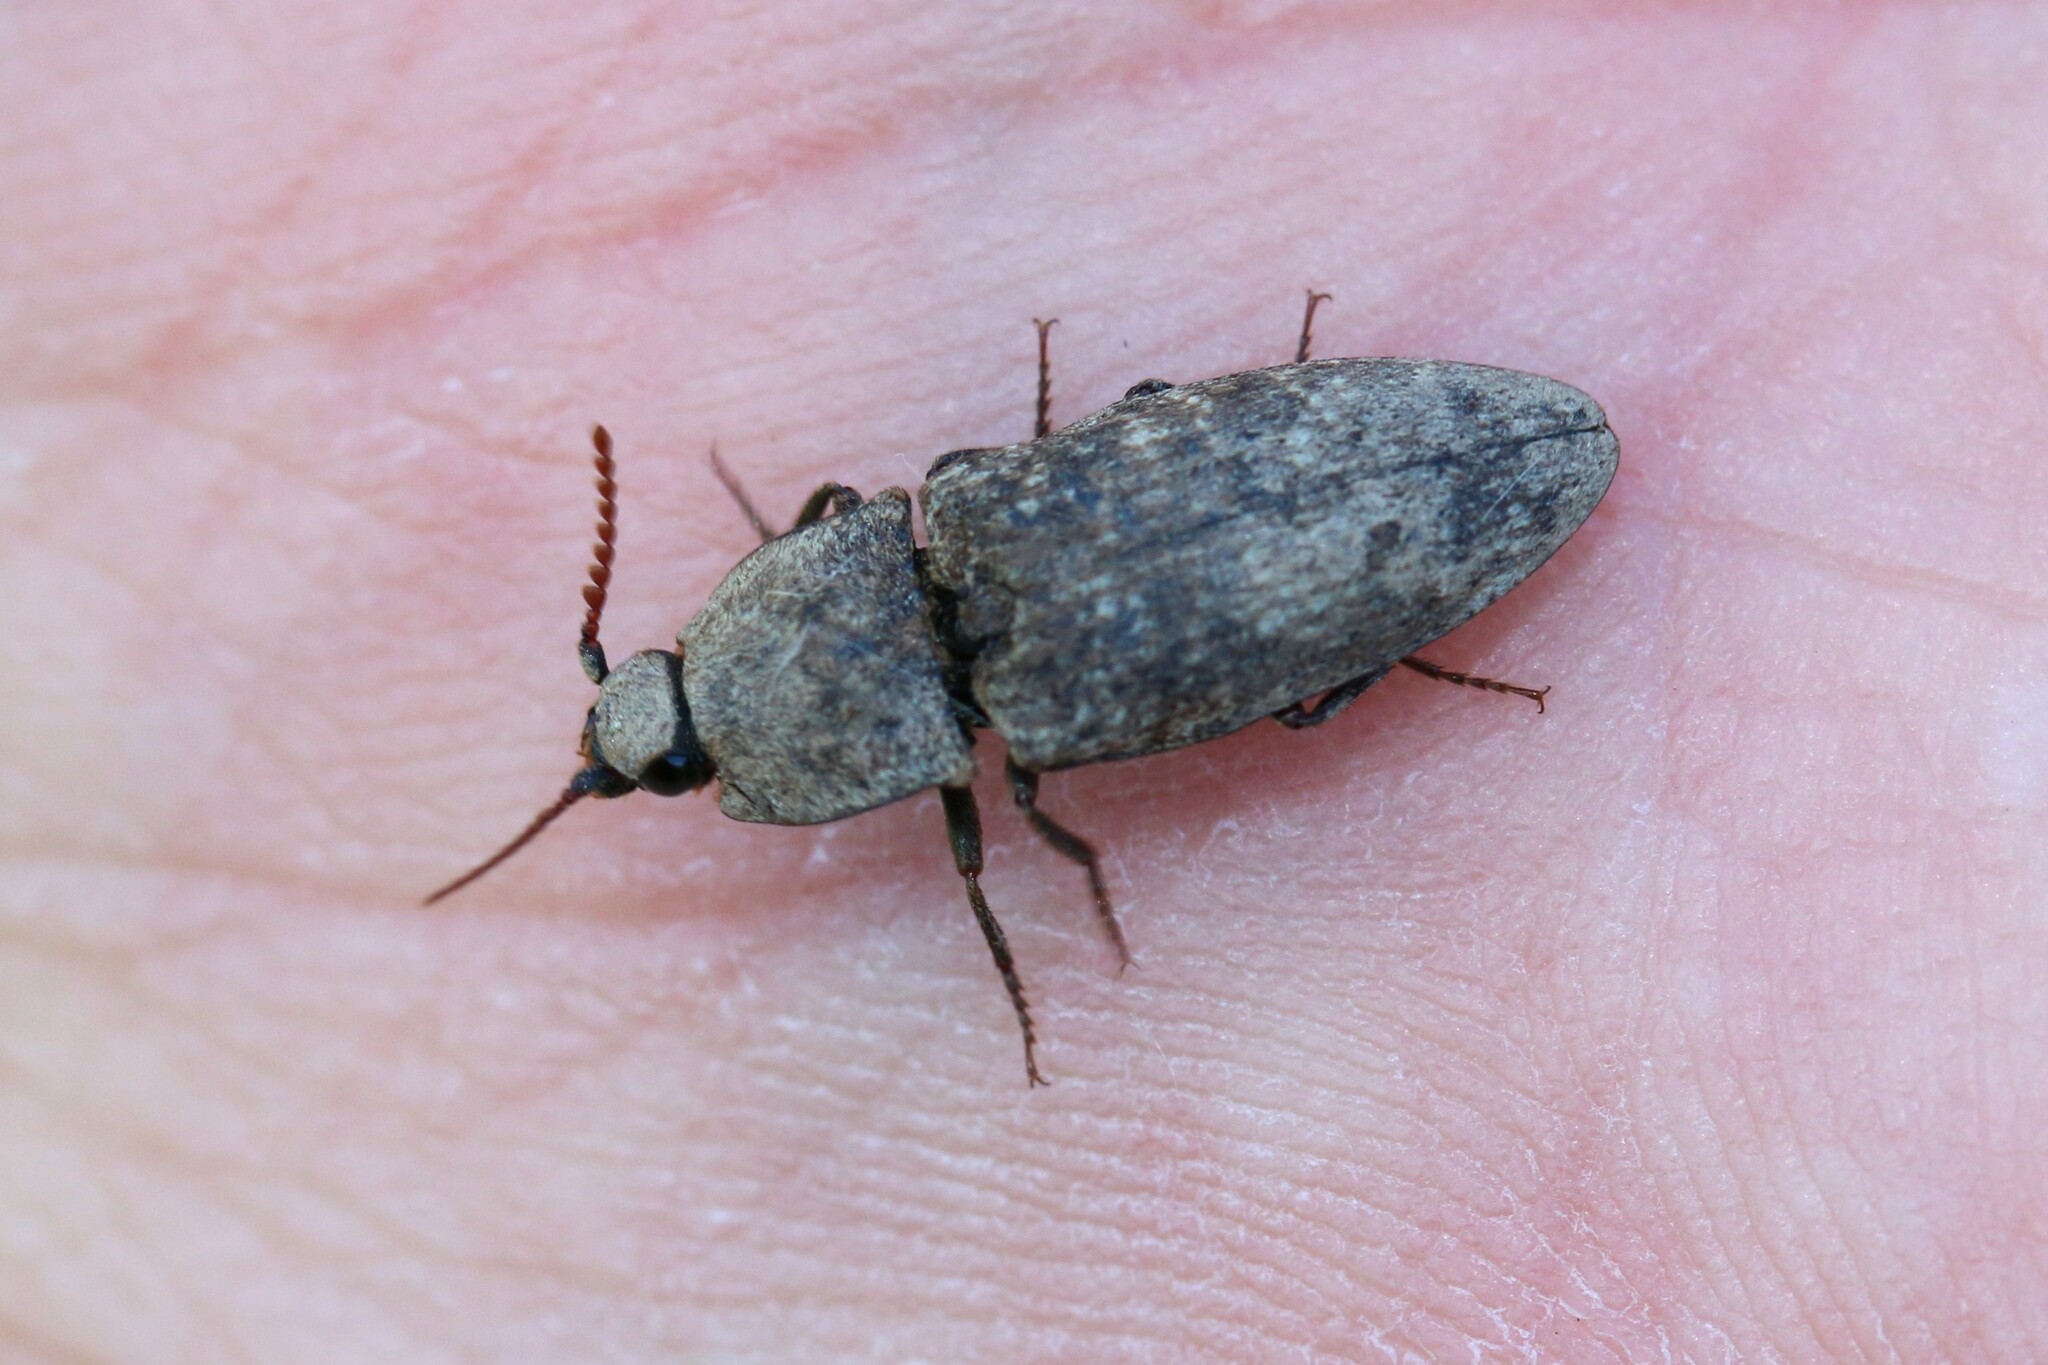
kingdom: Animalia
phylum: Arthropoda
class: Insecta
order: Coleoptera
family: Elateridae
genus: Agrypnus
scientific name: Agrypnus murinus
